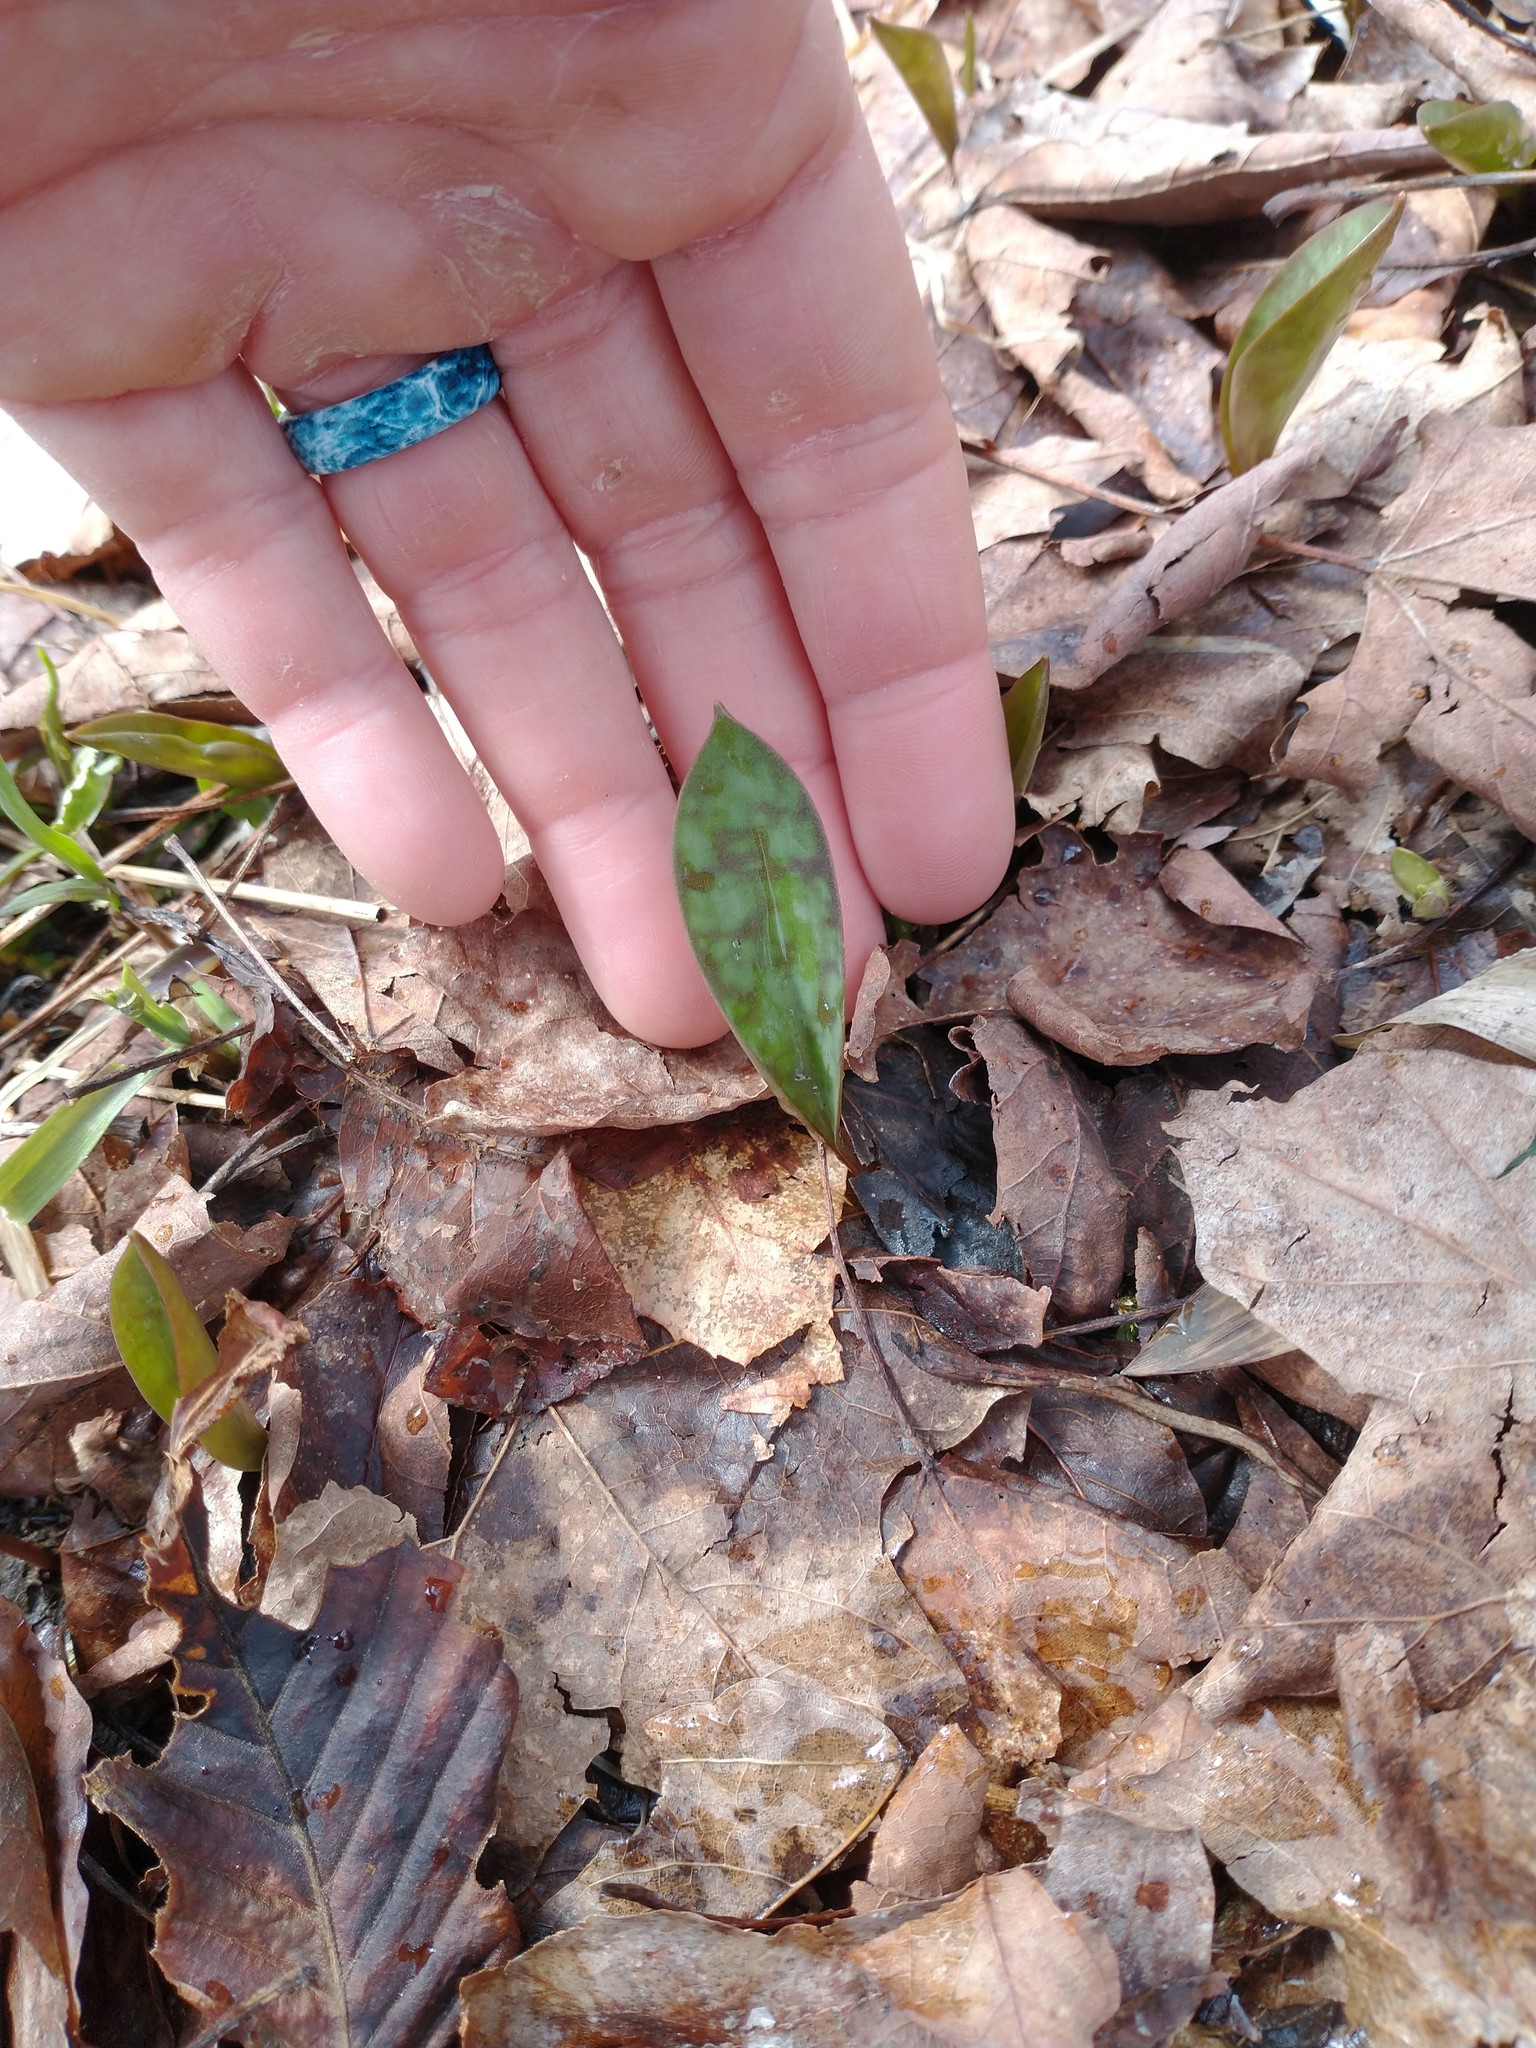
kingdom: Plantae
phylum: Tracheophyta
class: Liliopsida
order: Liliales
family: Liliaceae
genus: Erythronium
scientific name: Erythronium americanum
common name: Yellow adder's-tongue
